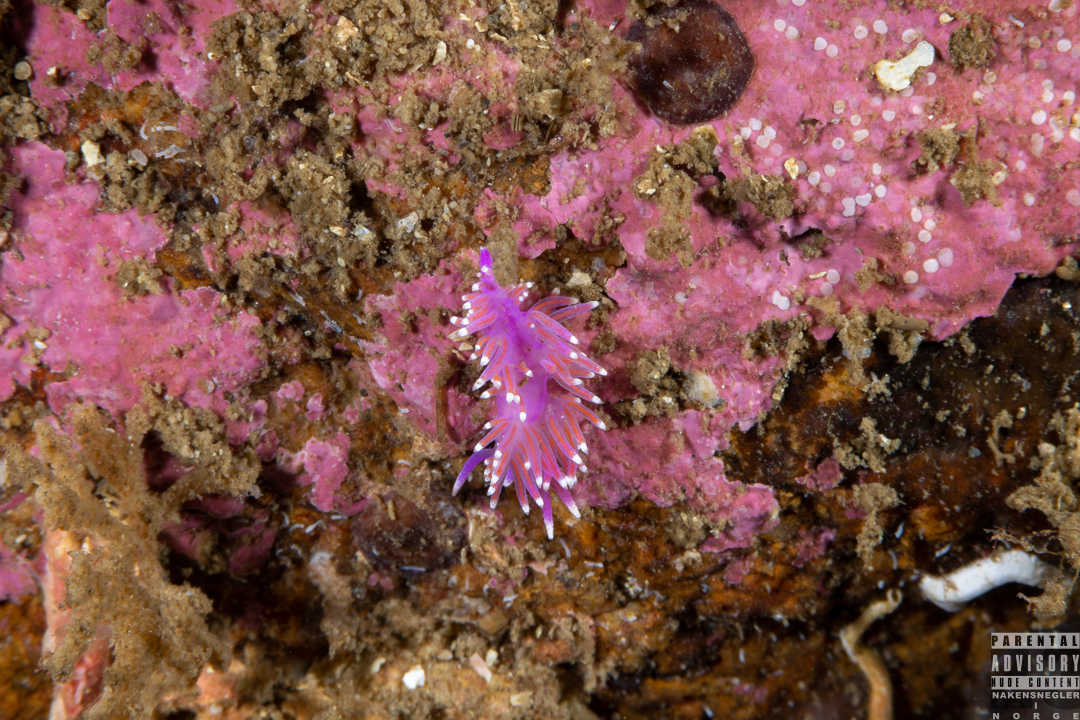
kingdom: Animalia
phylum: Mollusca
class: Gastropoda
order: Nudibranchia
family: Flabellinidae
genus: Edmundsella
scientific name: Edmundsella pedata
